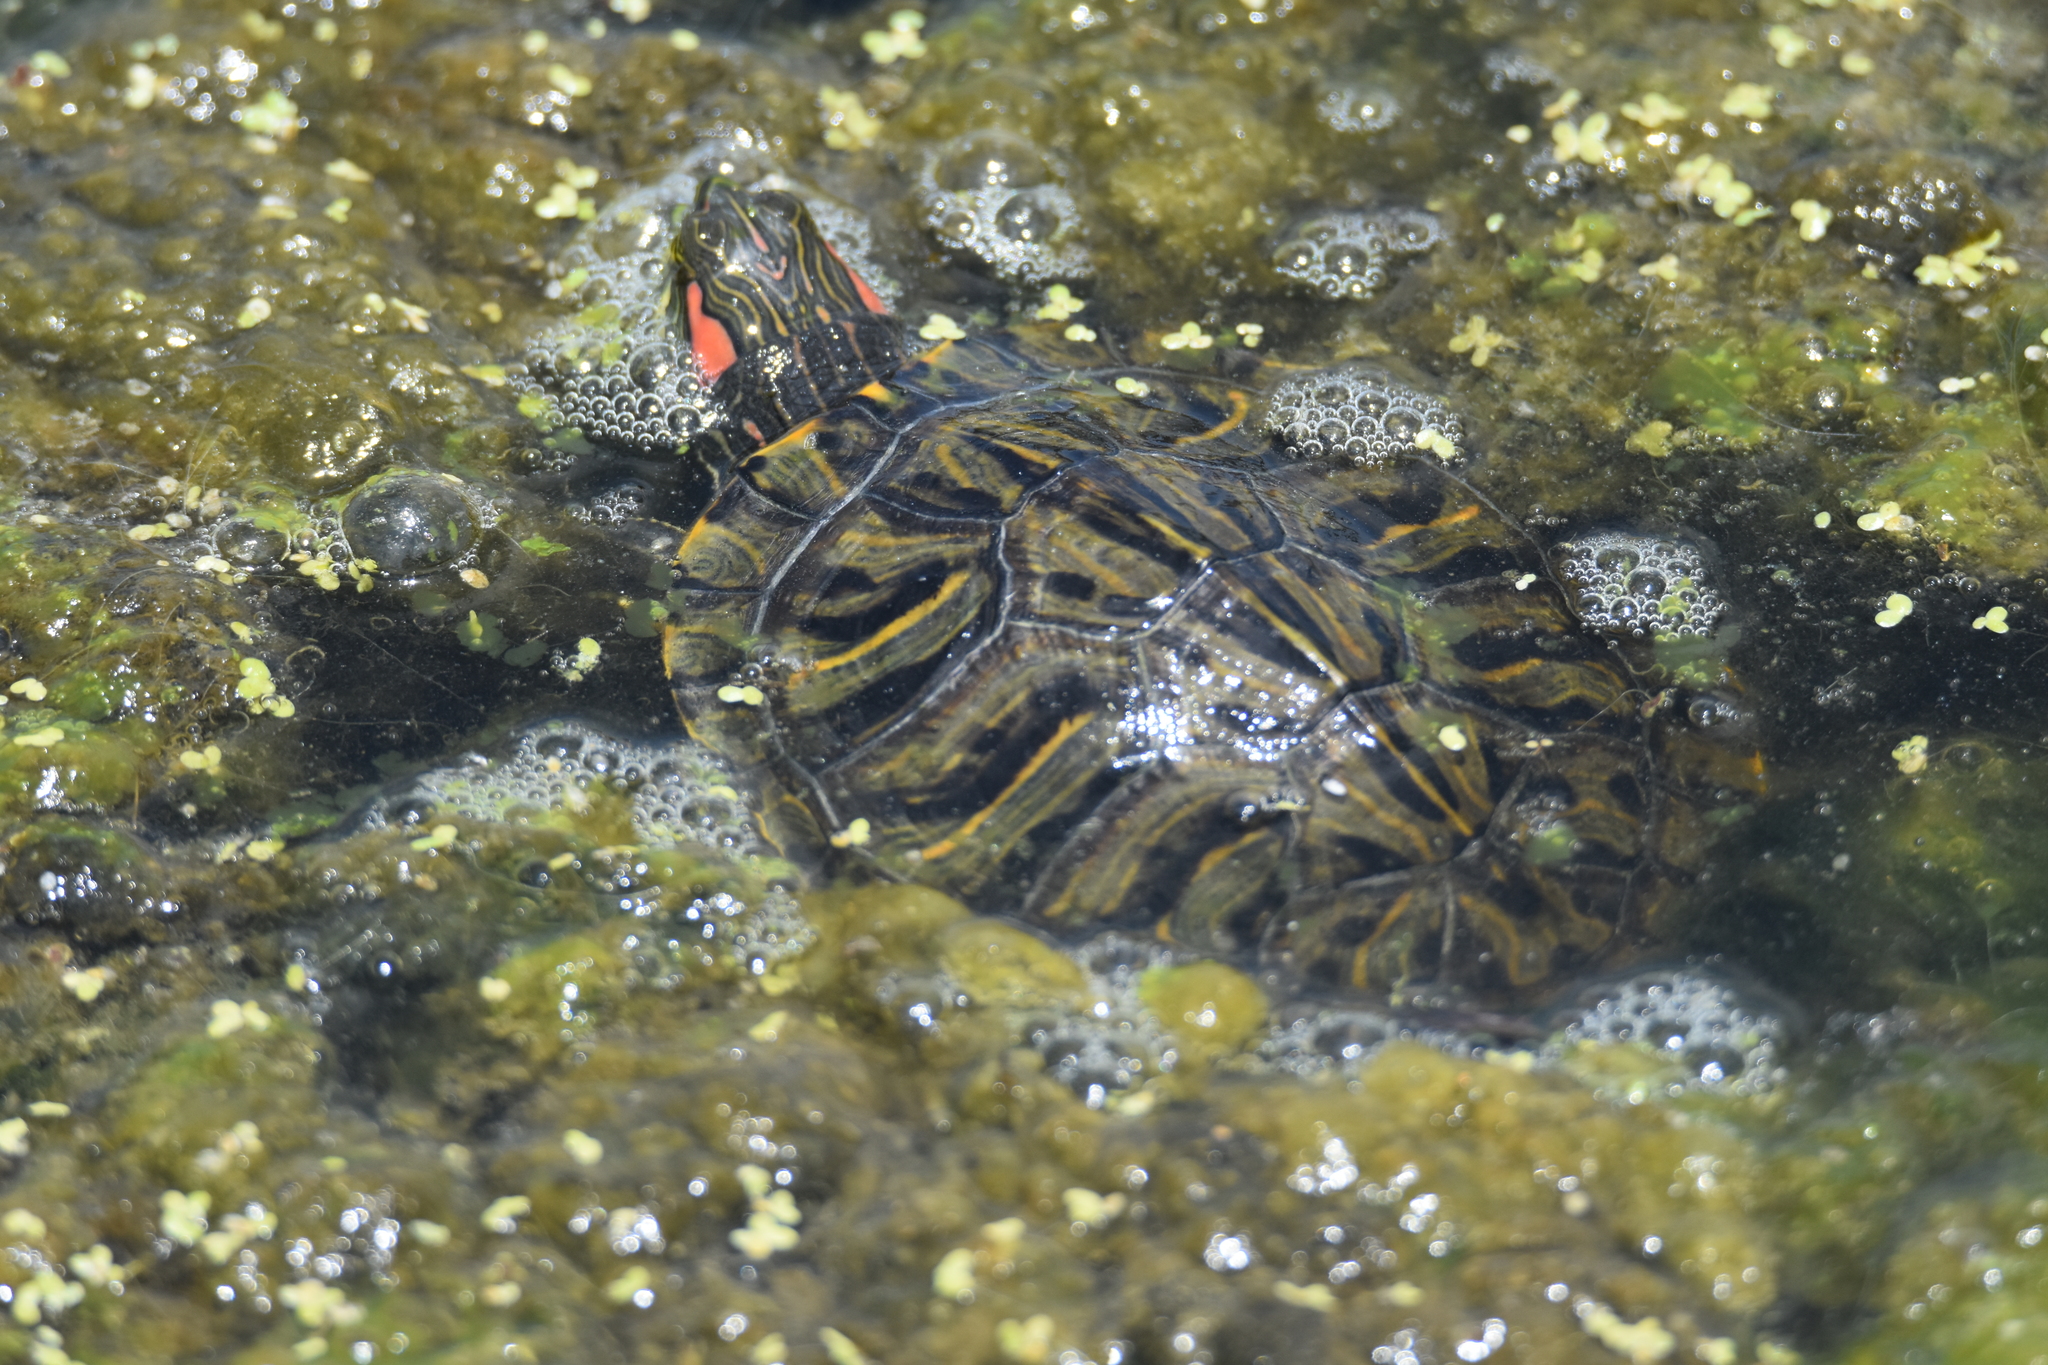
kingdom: Animalia
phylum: Chordata
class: Testudines
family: Emydidae
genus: Trachemys
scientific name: Trachemys scripta
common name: Slider
